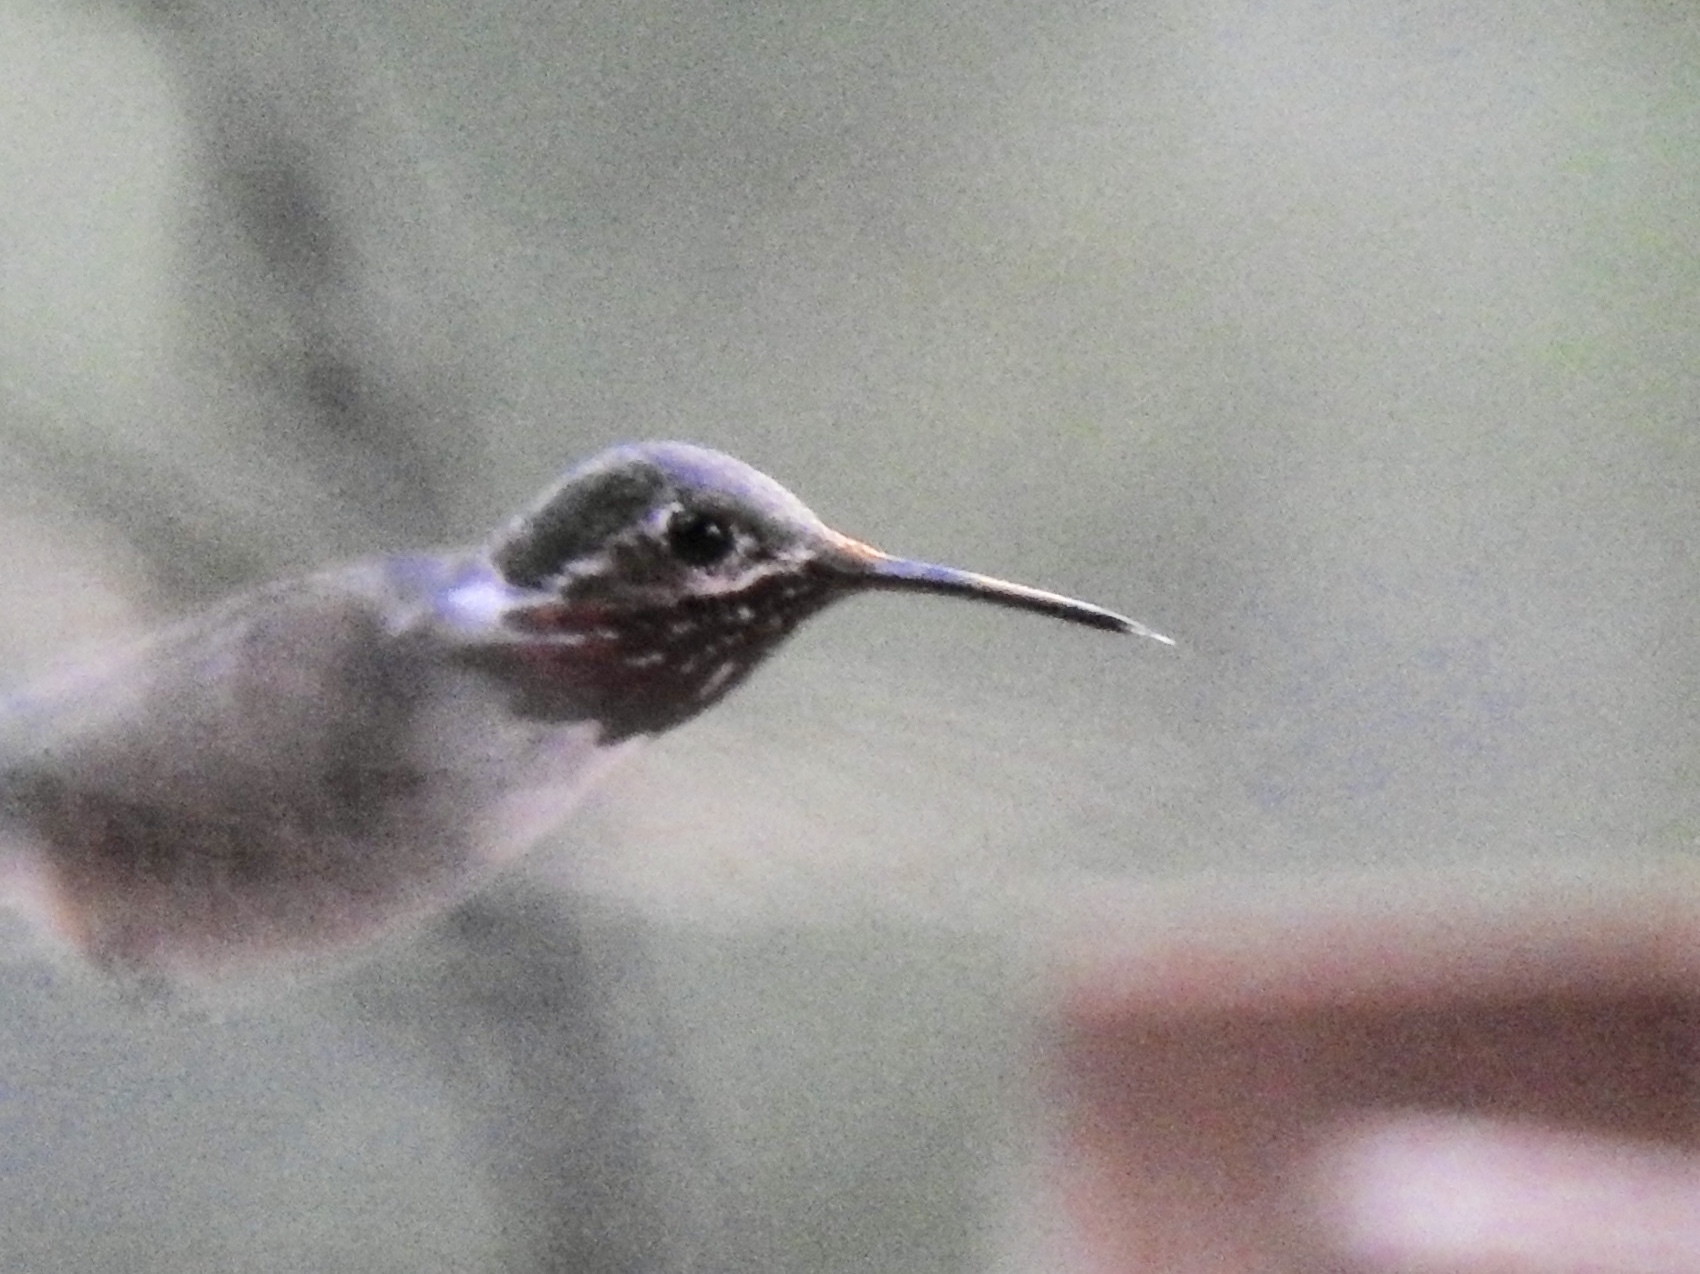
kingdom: Animalia
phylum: Chordata
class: Aves
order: Apodiformes
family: Trochilidae
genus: Selasphorus
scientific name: Selasphorus calliope
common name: Calliope hummingbird
